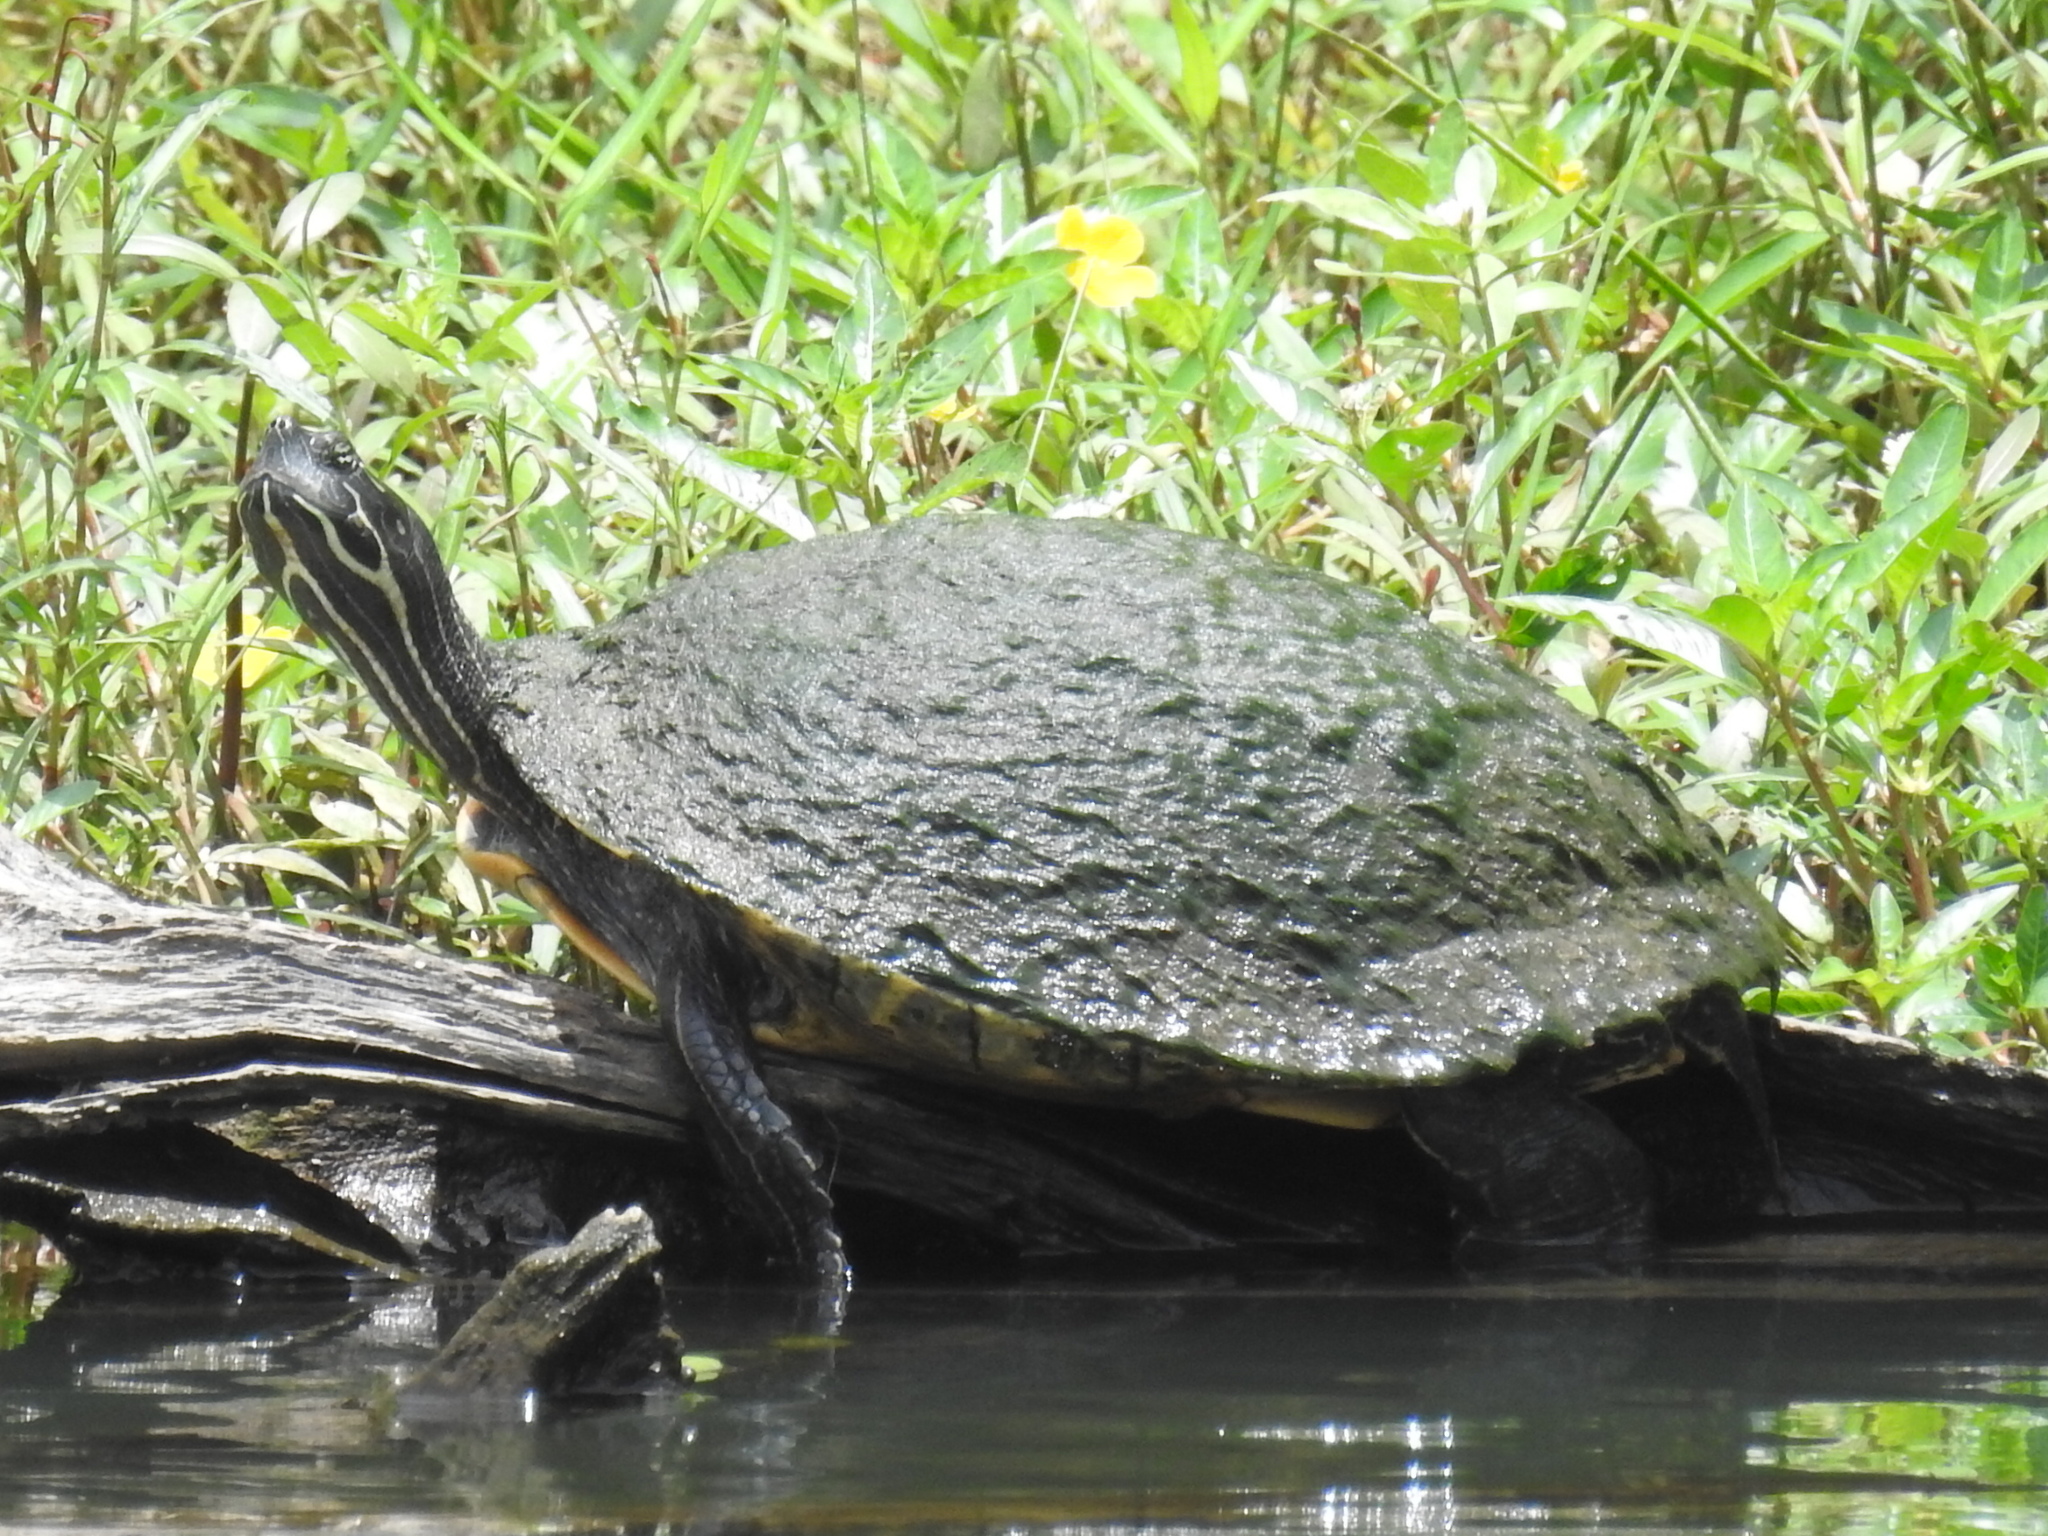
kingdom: Animalia
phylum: Chordata
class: Testudines
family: Emydidae
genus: Pseudemys
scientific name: Pseudemys concinna
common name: Eastern river cooter
